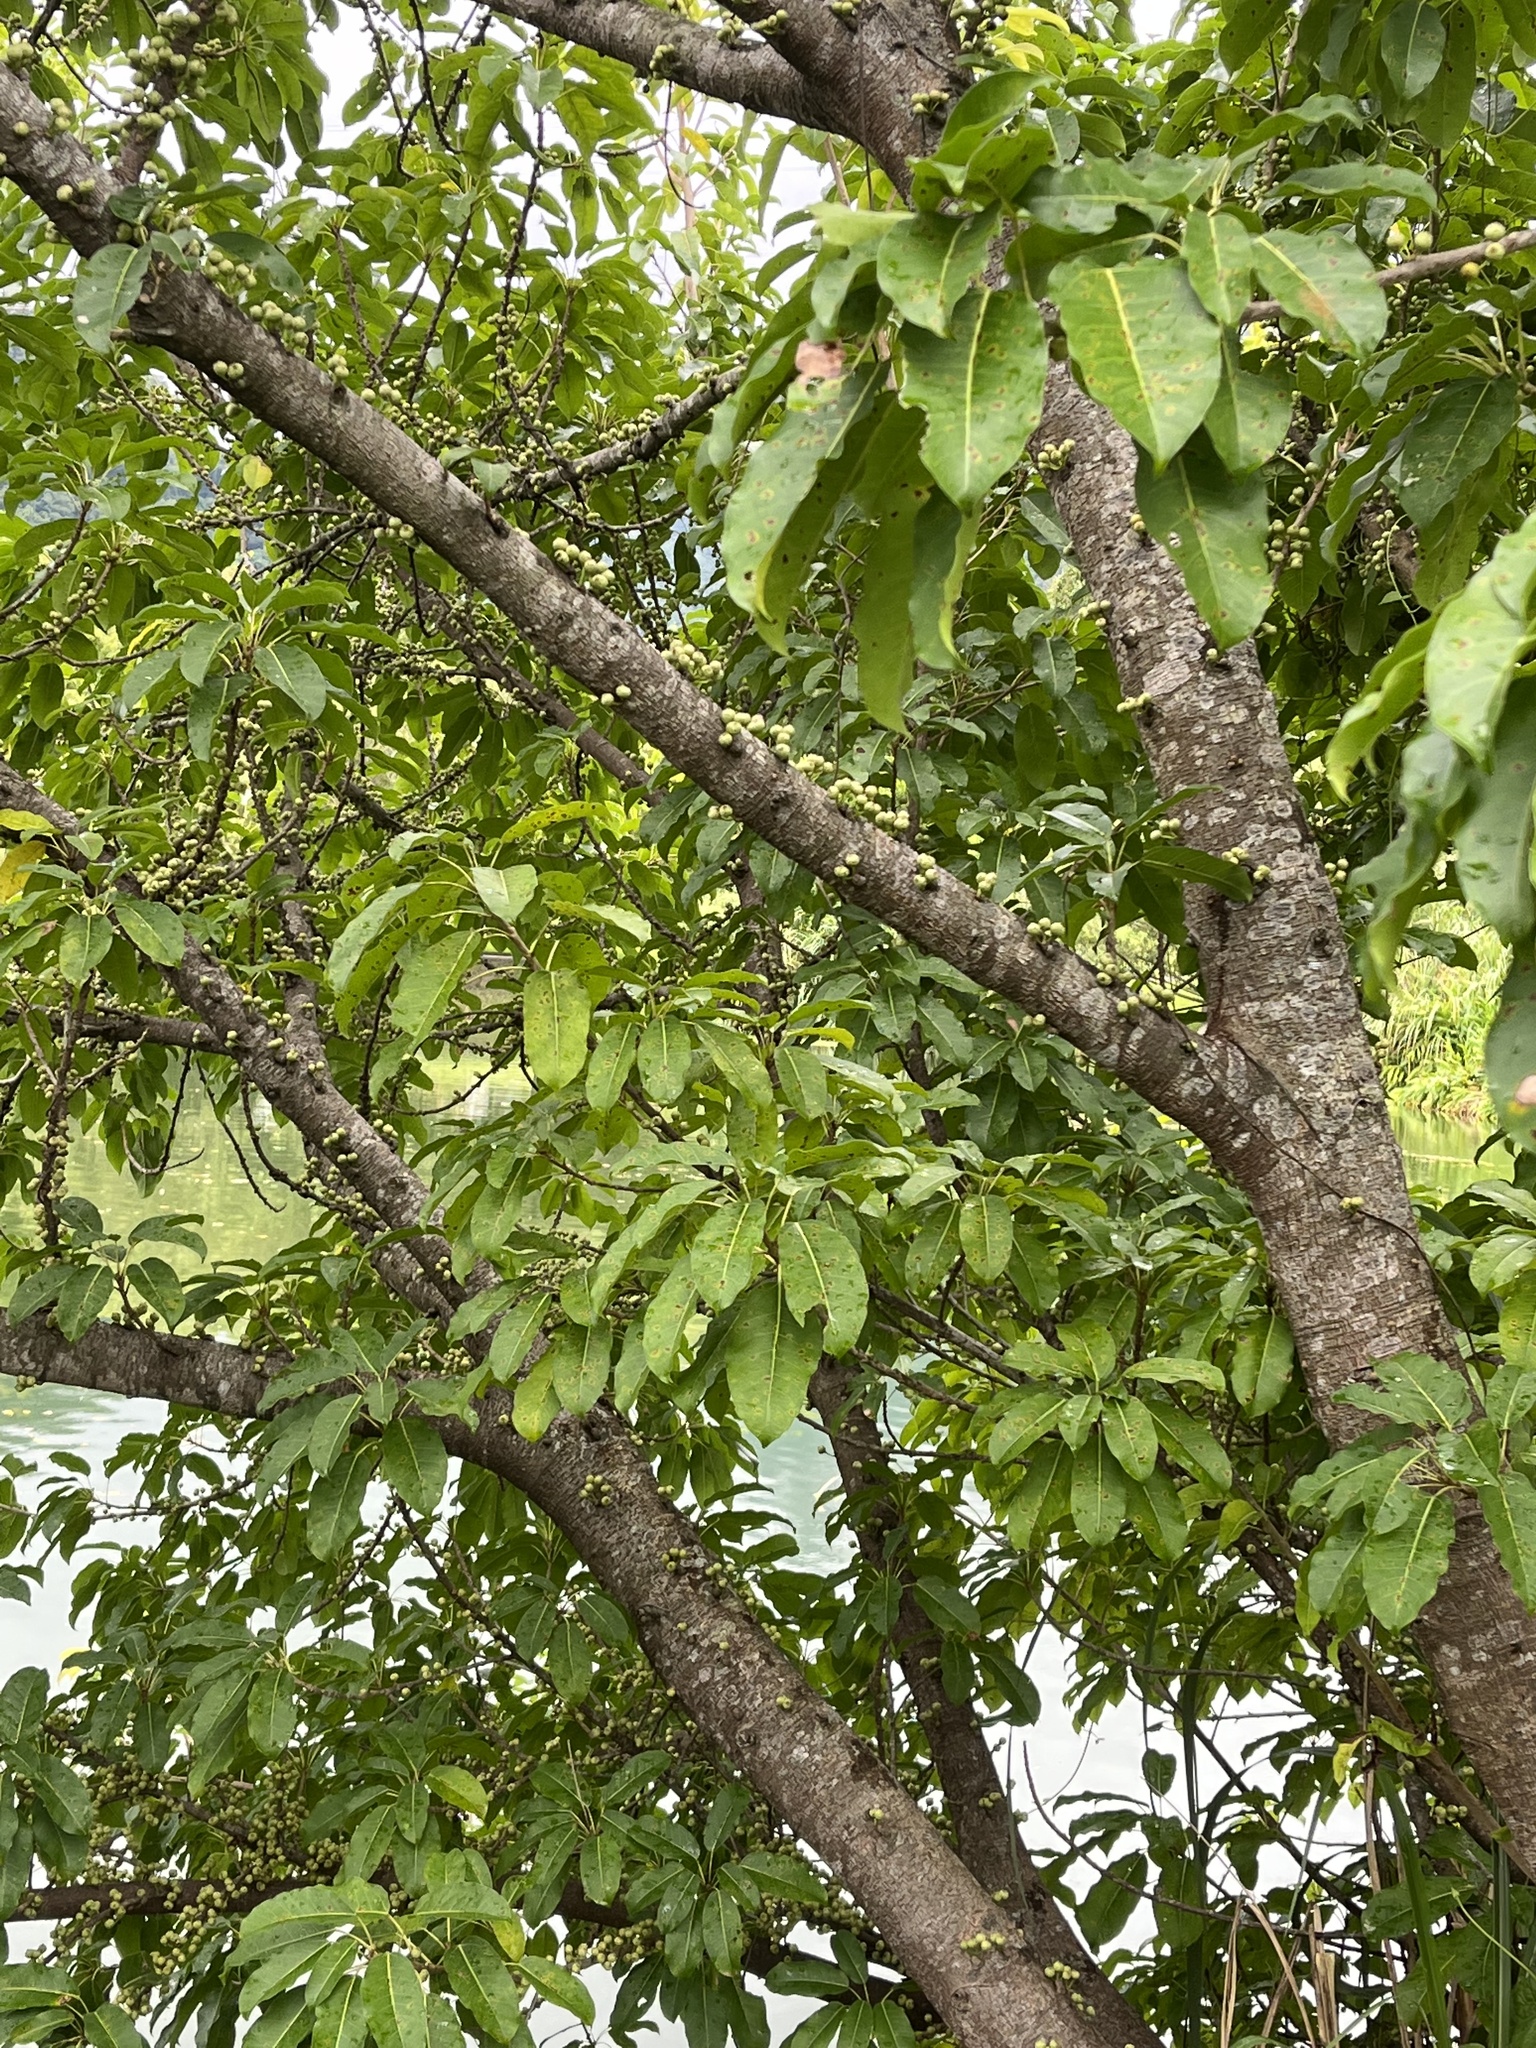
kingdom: Plantae
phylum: Tracheophyta
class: Magnoliopsida
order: Rosales
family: Moraceae
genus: Ficus
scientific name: Ficus subpisocarpa
